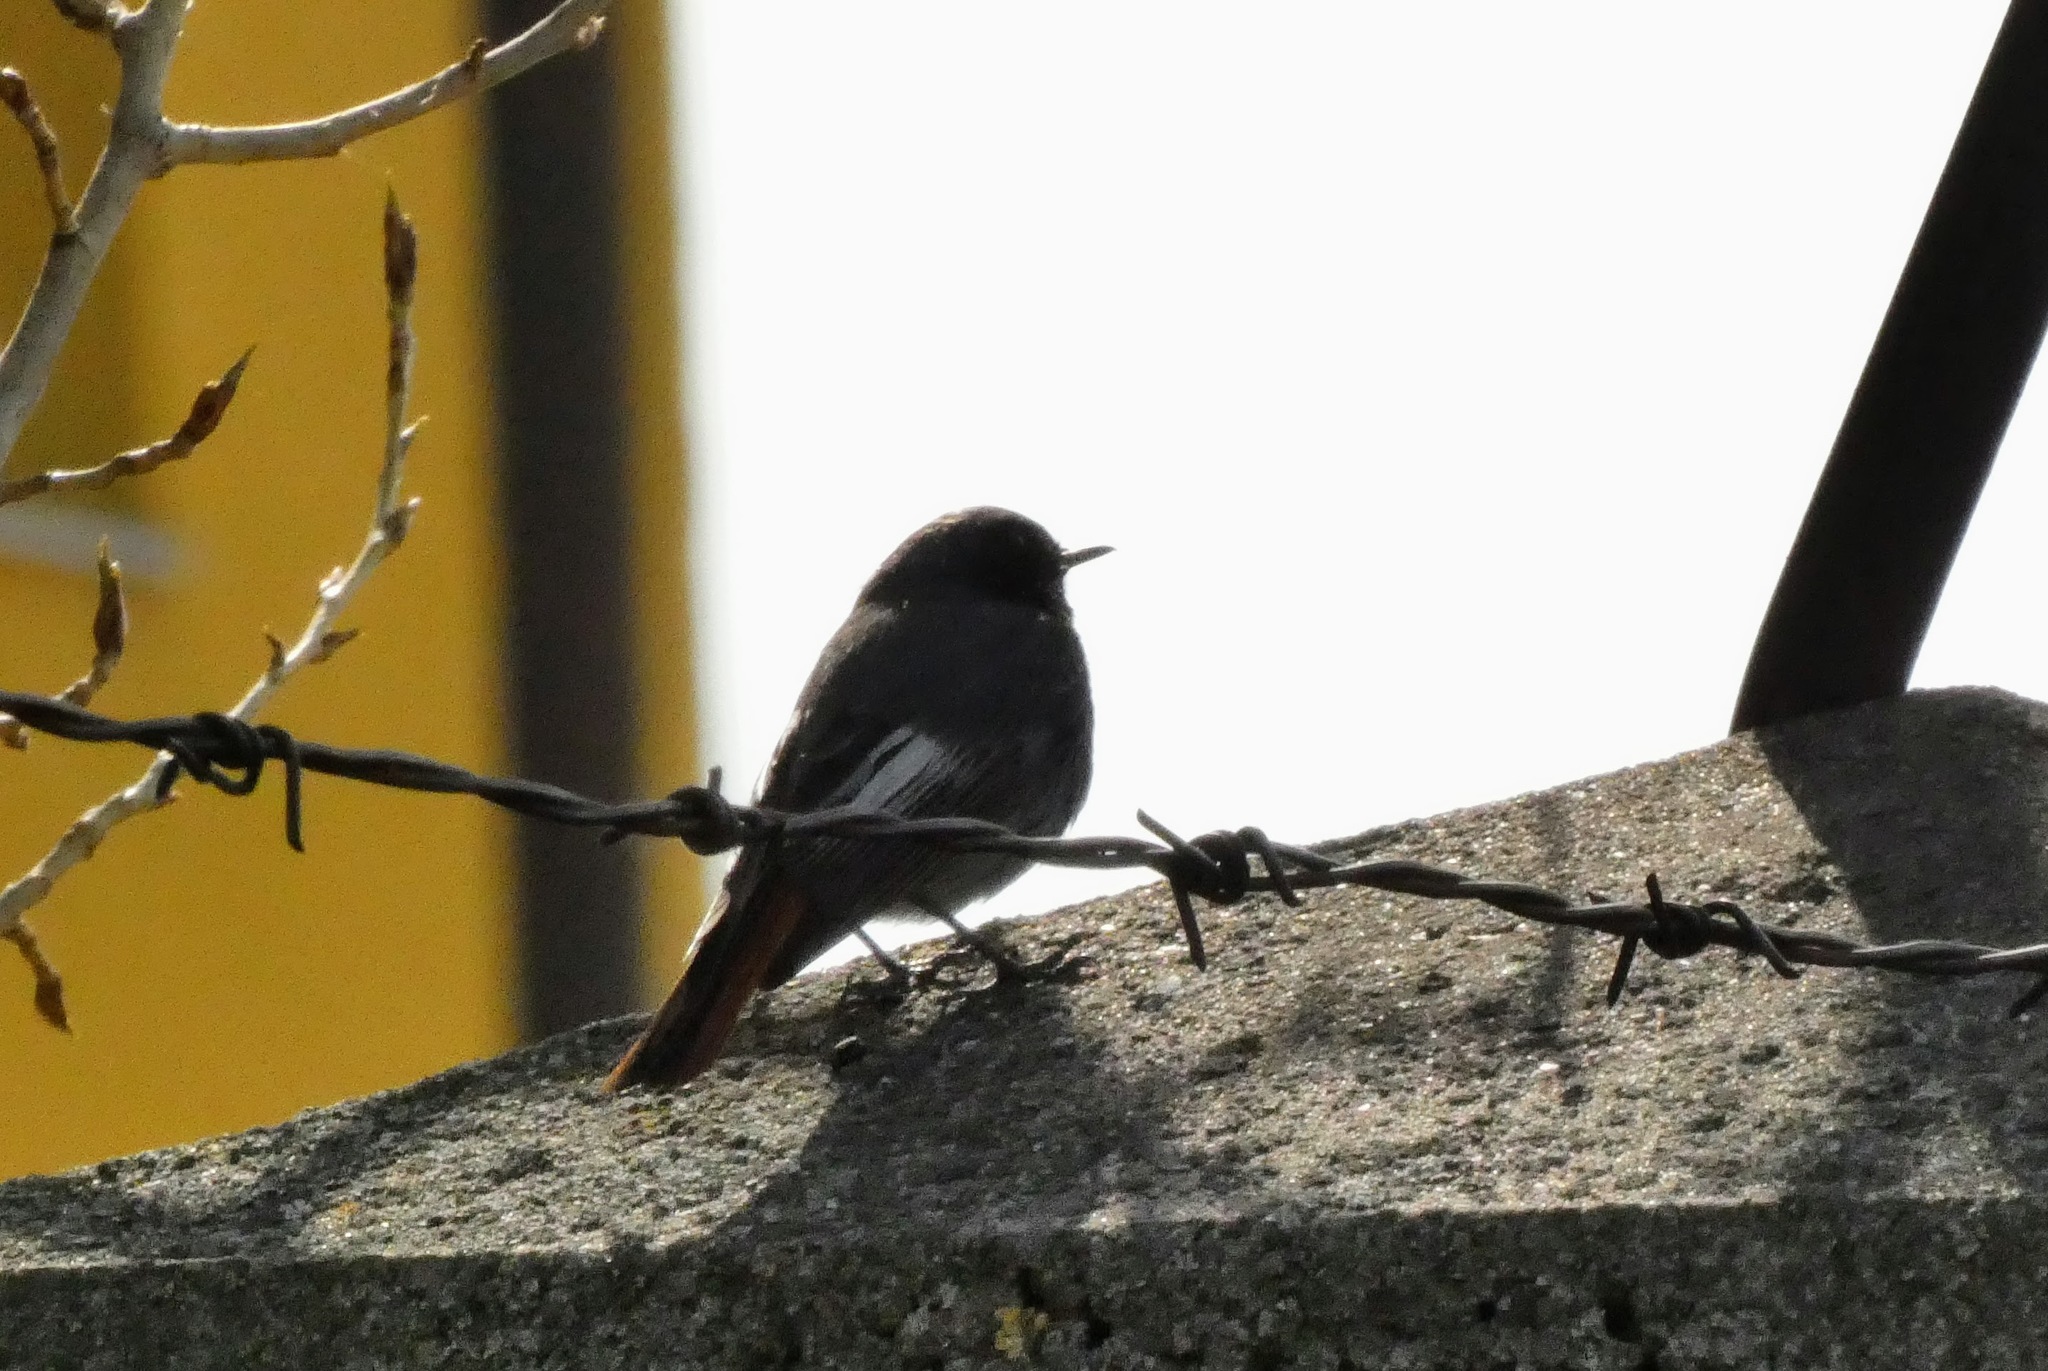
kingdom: Animalia
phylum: Chordata
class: Aves
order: Passeriformes
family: Muscicapidae
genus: Phoenicurus
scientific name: Phoenicurus ochruros
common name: Black redstart
